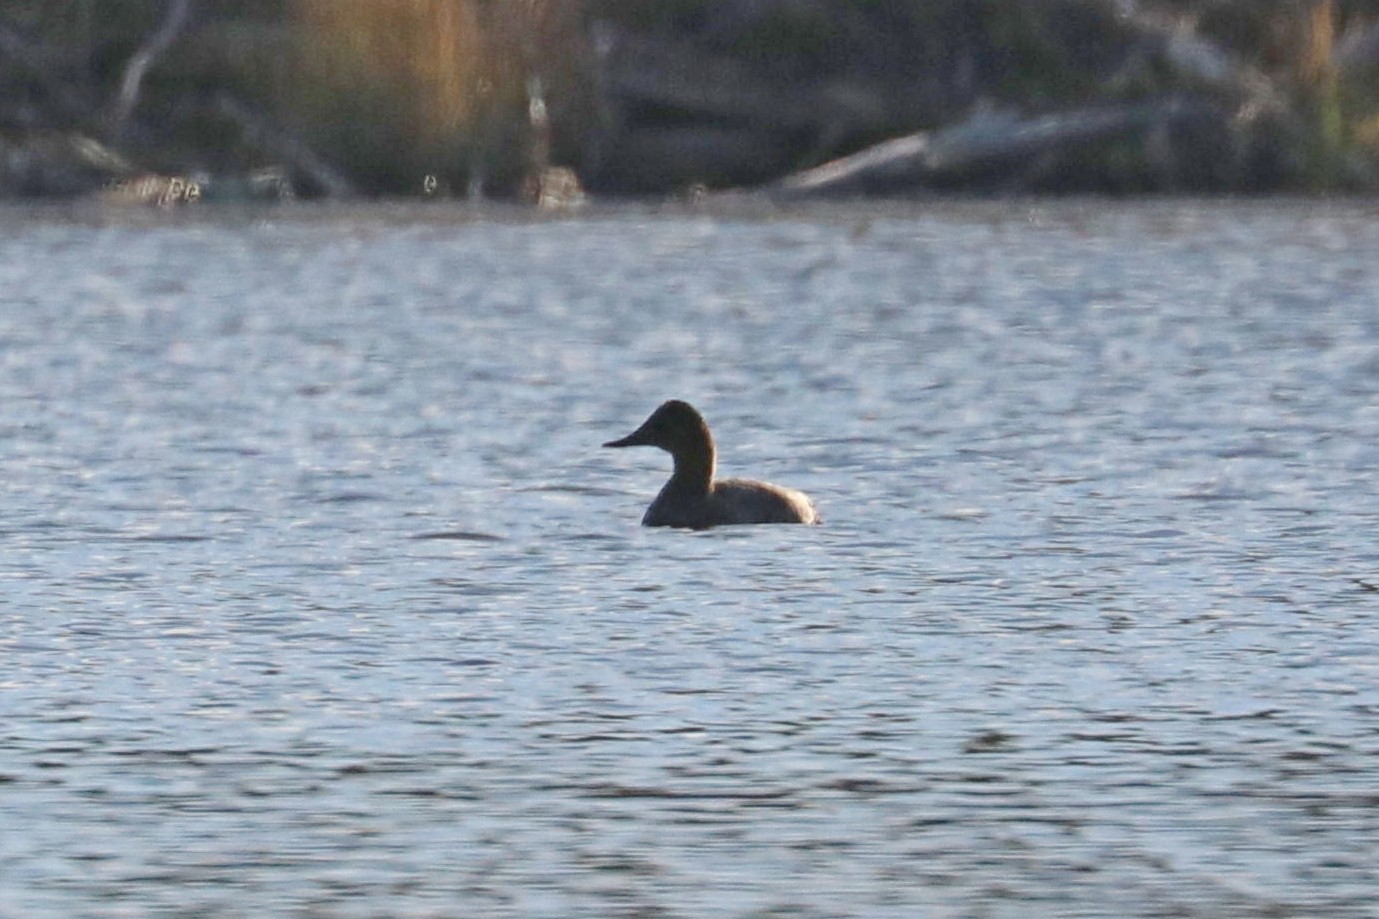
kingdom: Animalia
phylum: Chordata
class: Aves
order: Anseriformes
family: Anatidae
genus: Aythya
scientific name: Aythya ferina
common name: Common pochard
